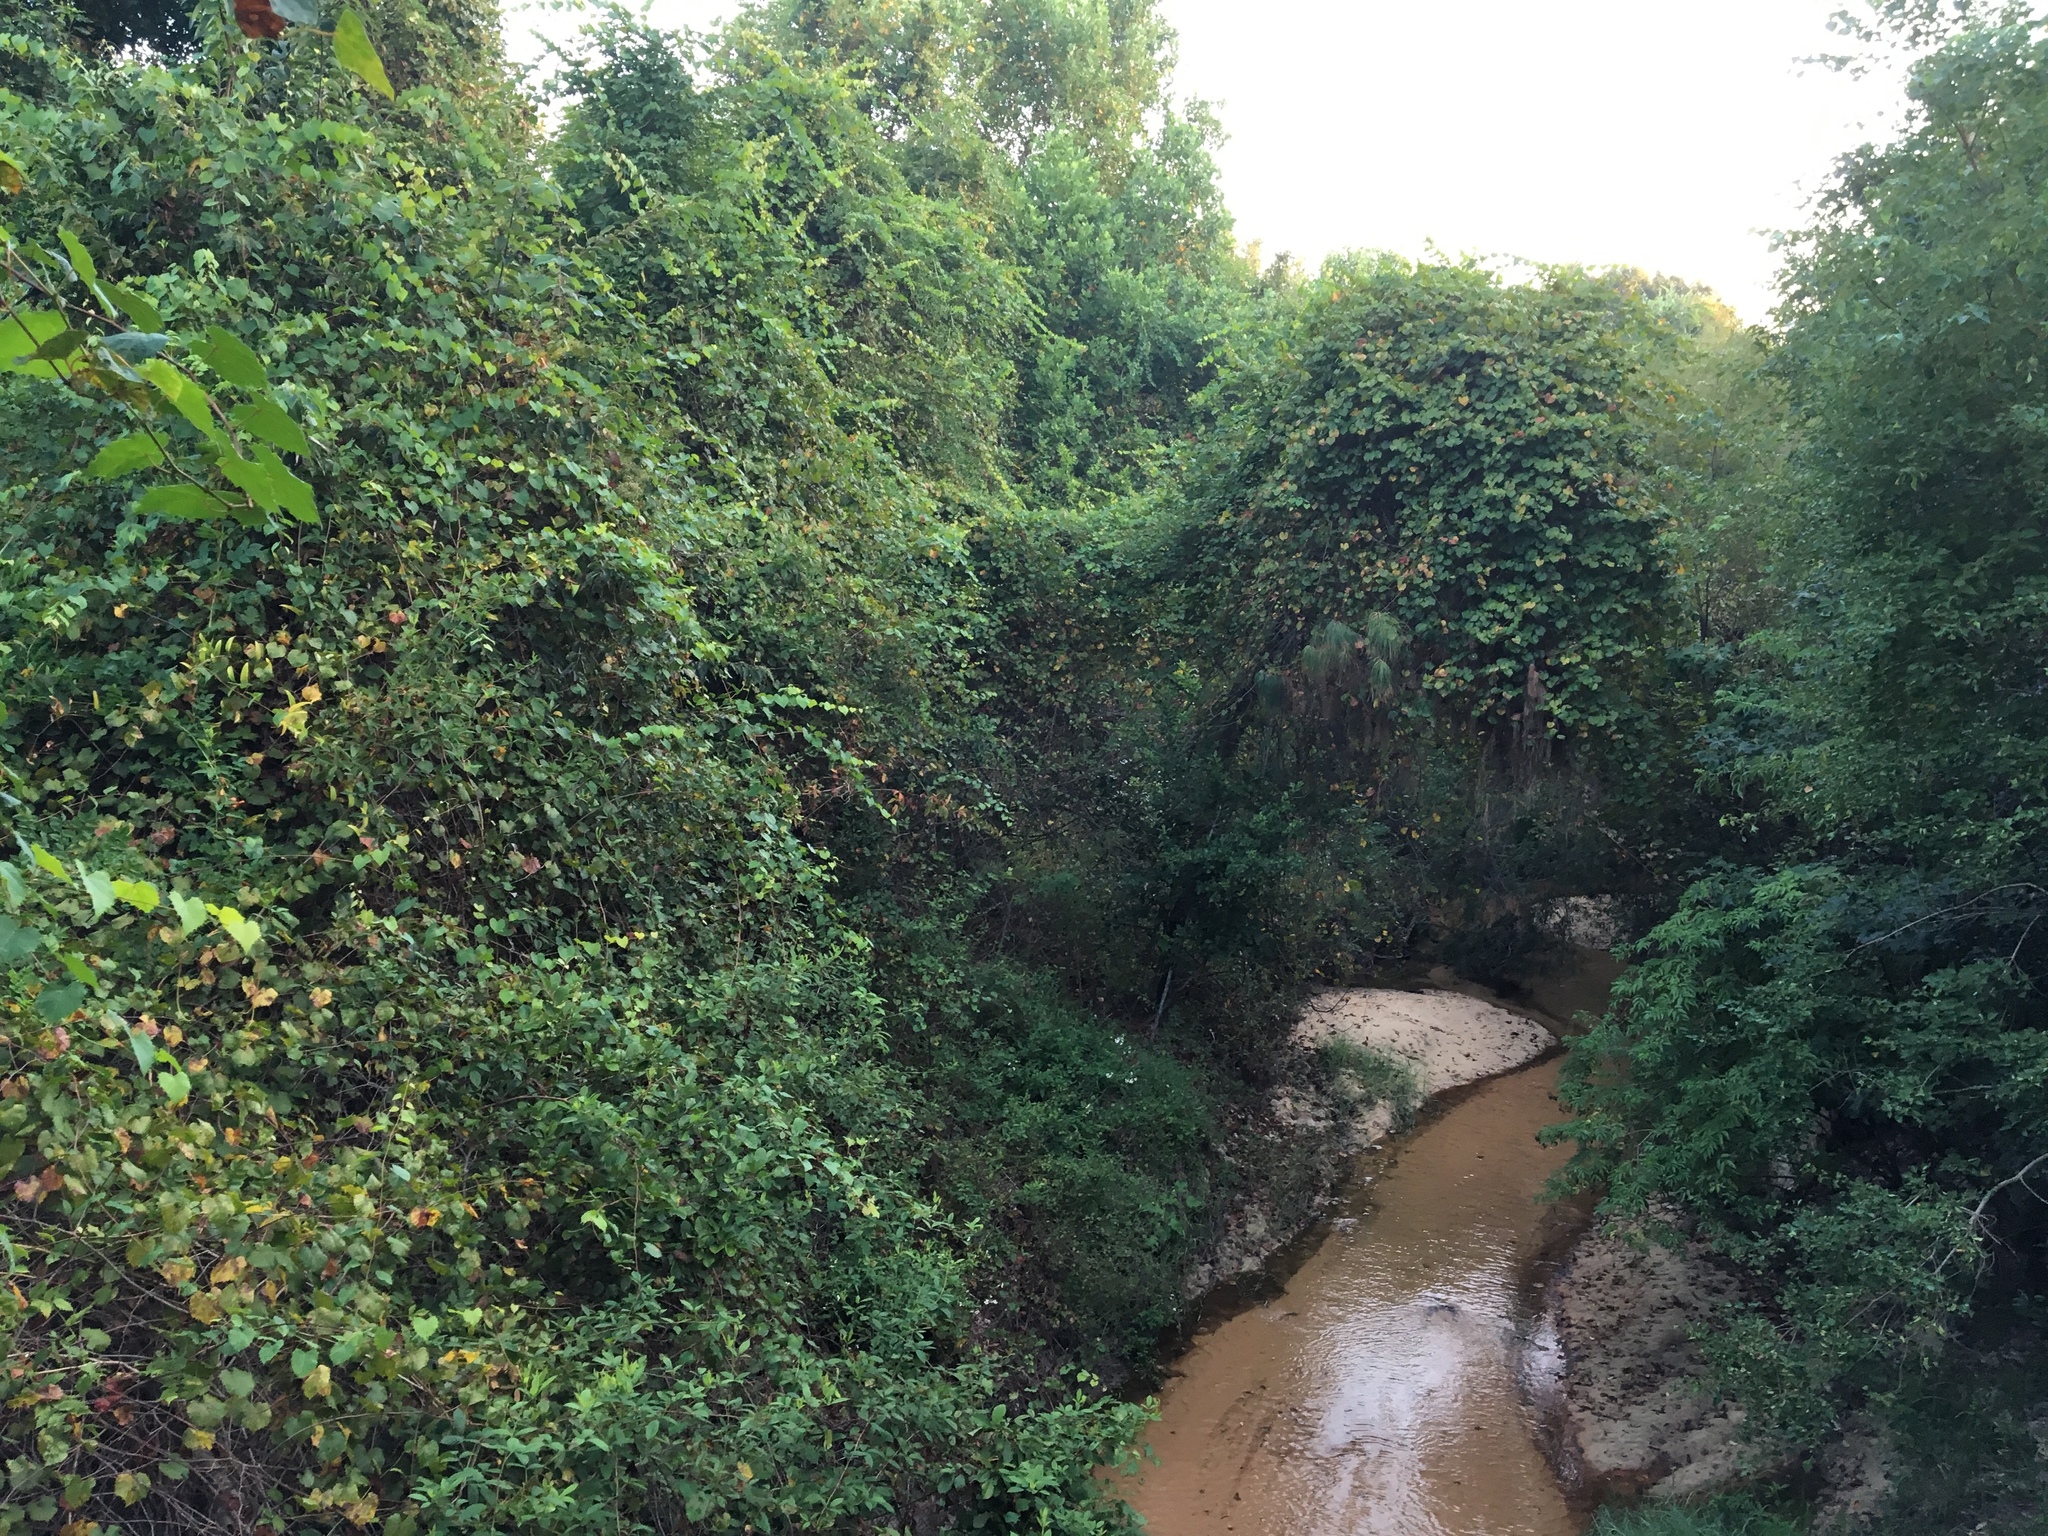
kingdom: Plantae
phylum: Tracheophyta
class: Magnoliopsida
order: Vitales
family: Vitaceae
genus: Vitis
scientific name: Vitis rotundifolia
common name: Muscadine grape
